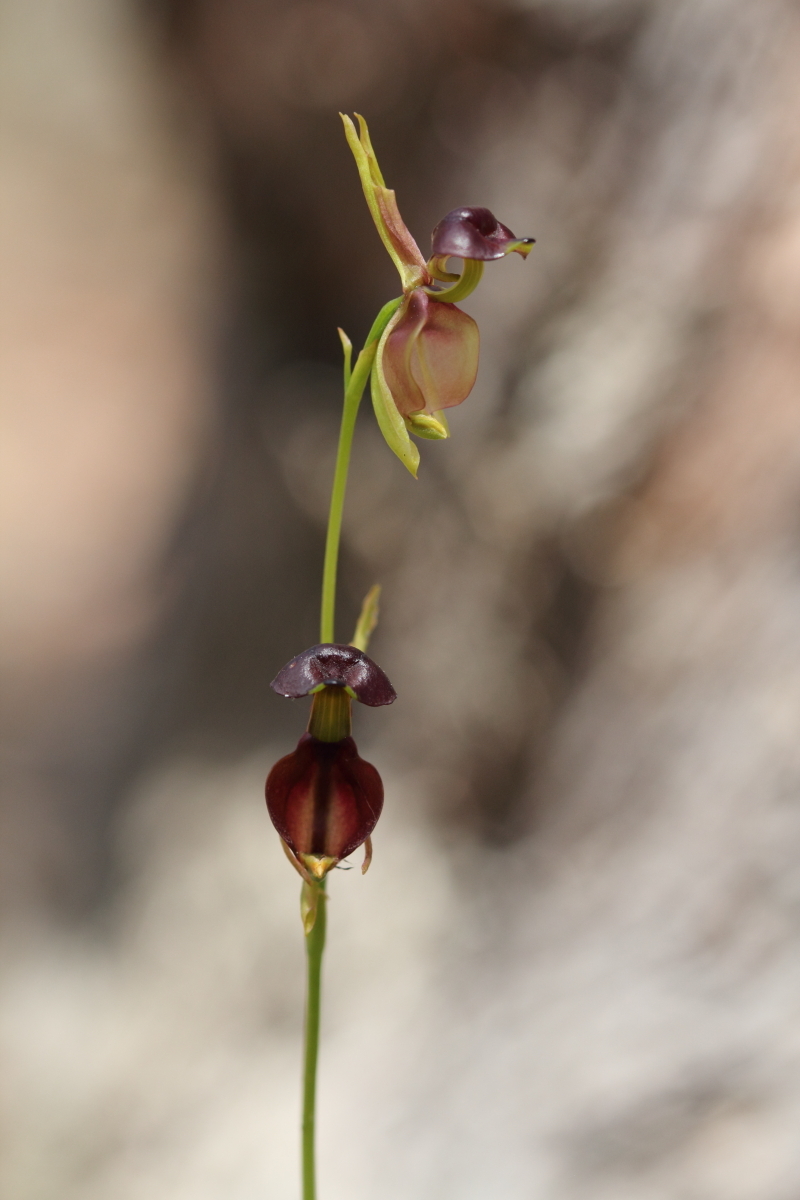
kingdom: Plantae
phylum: Tracheophyta
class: Liliopsida
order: Asparagales
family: Orchidaceae
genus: Caleana
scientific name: Caleana major
